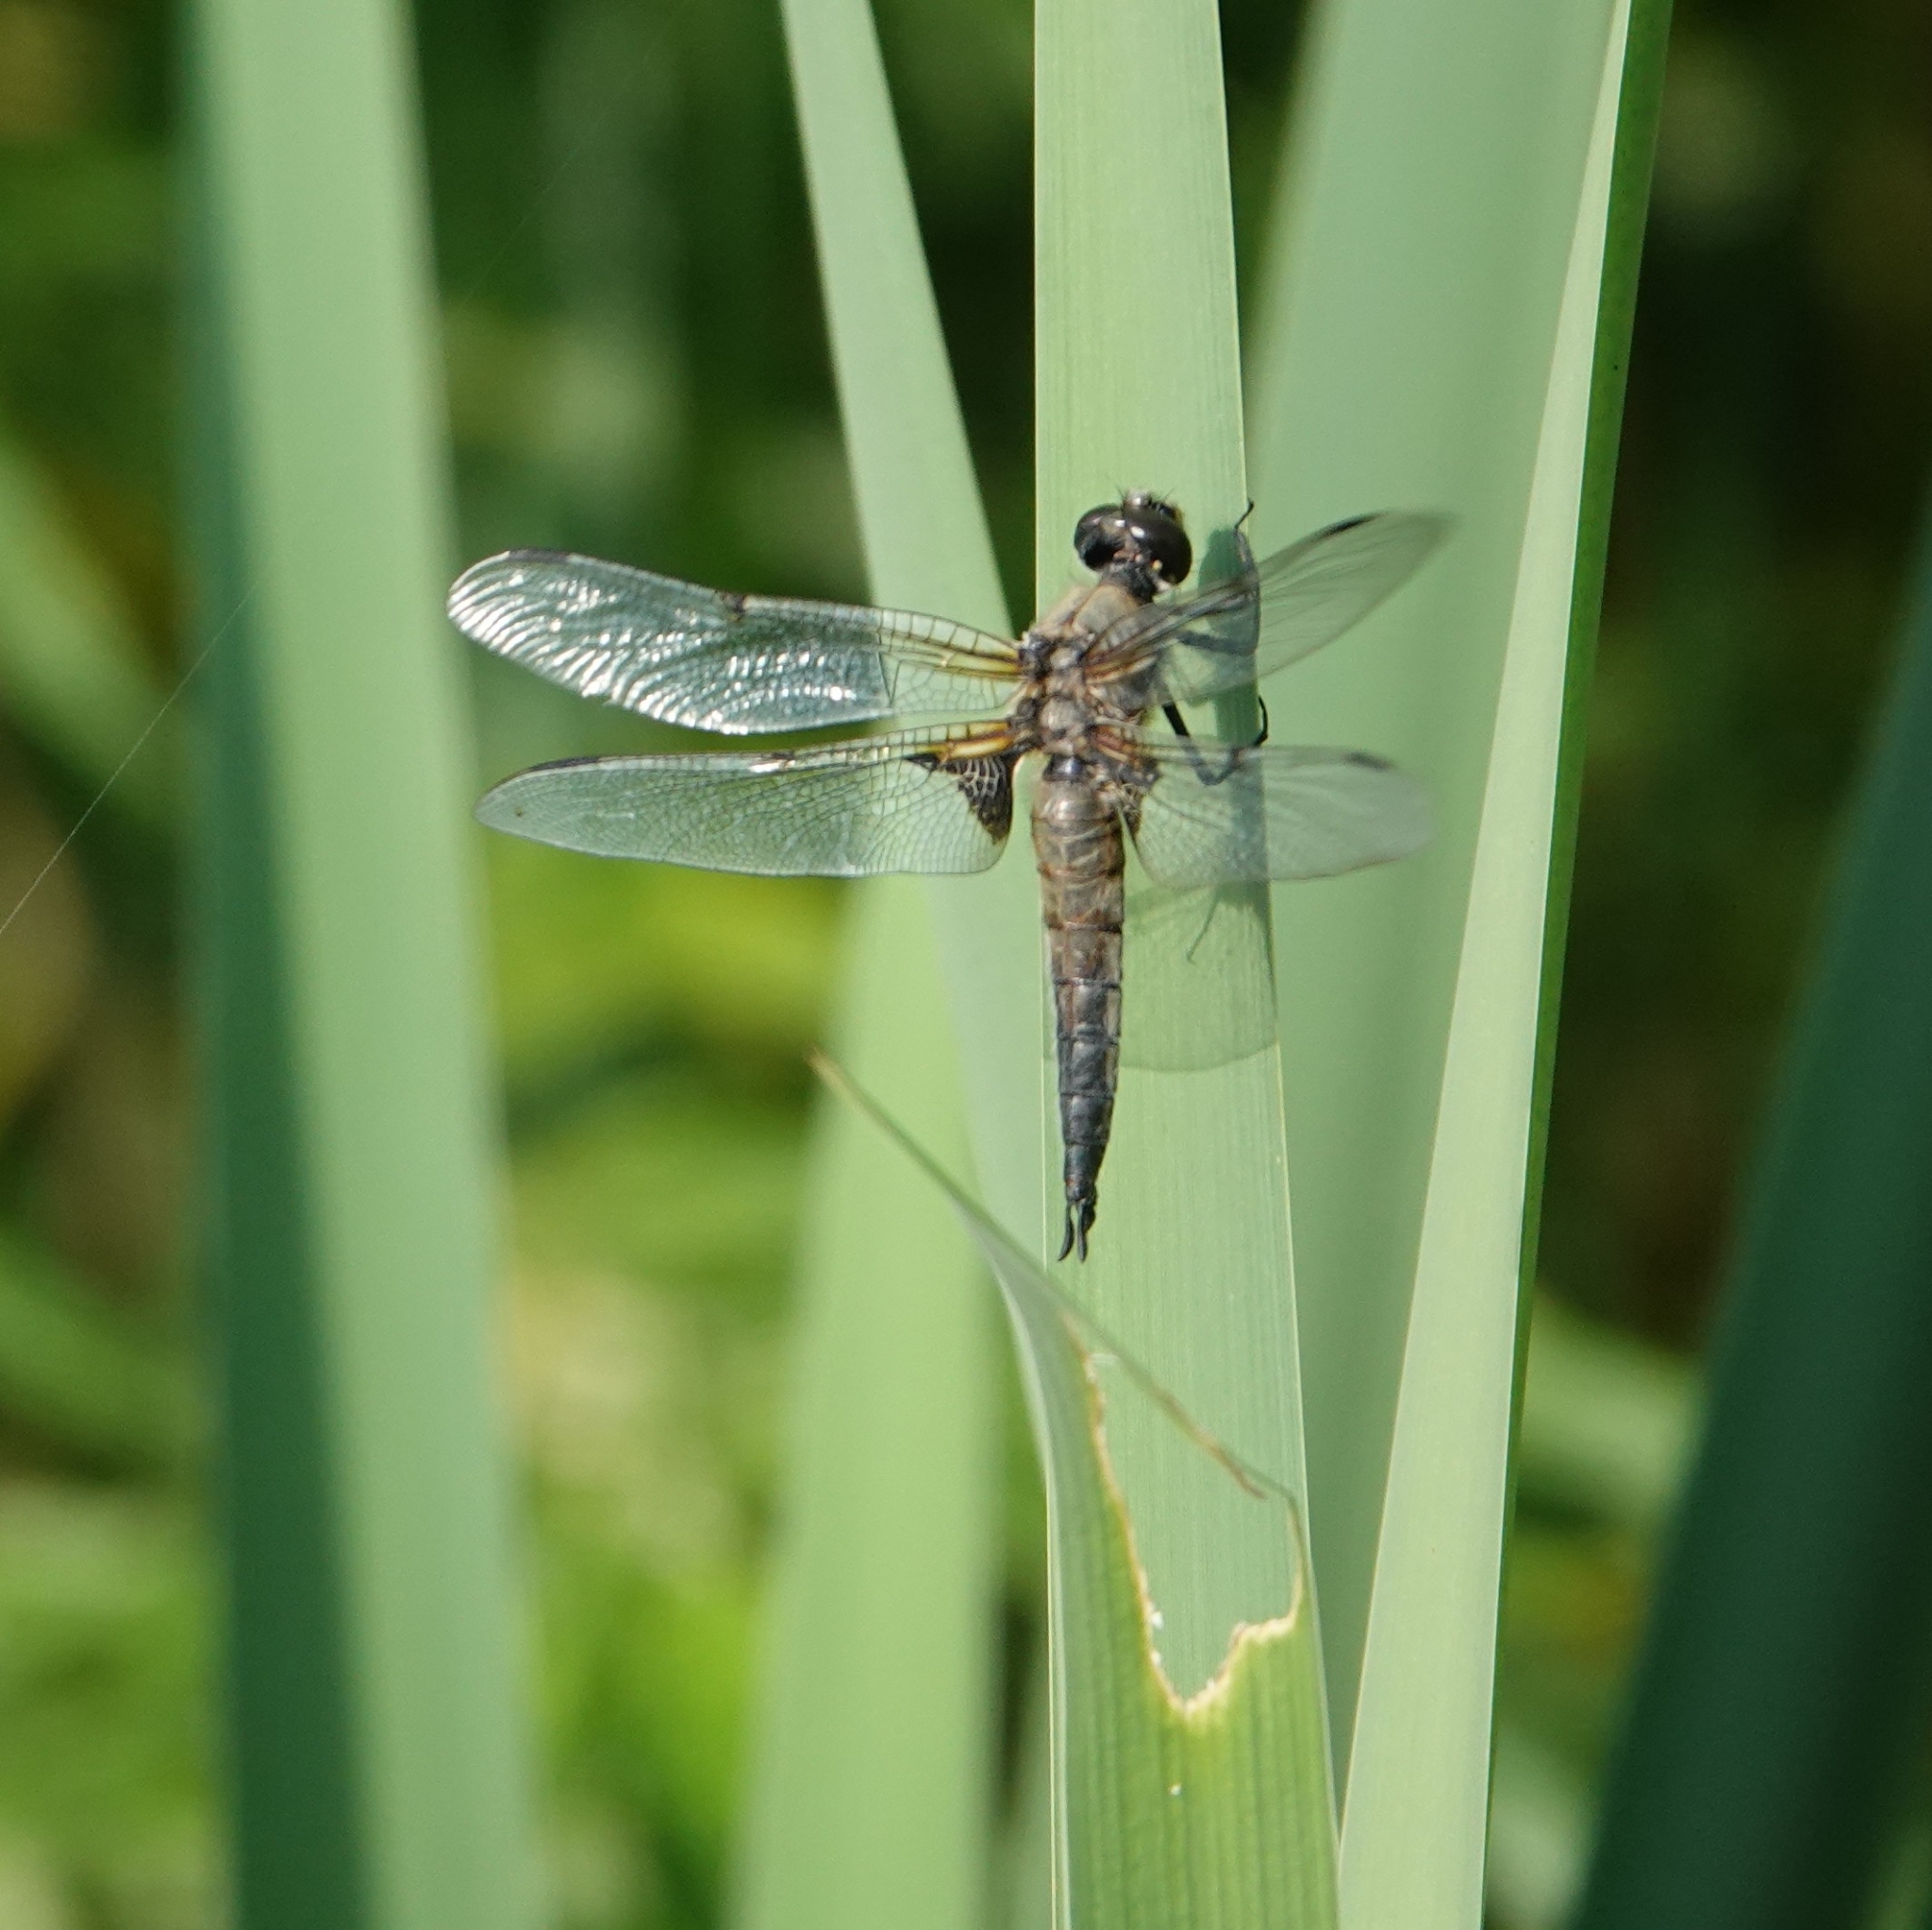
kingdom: Animalia
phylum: Arthropoda
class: Insecta
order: Odonata
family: Libellulidae
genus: Libellula
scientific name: Libellula quadrimaculata
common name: Four-spotted chaser
